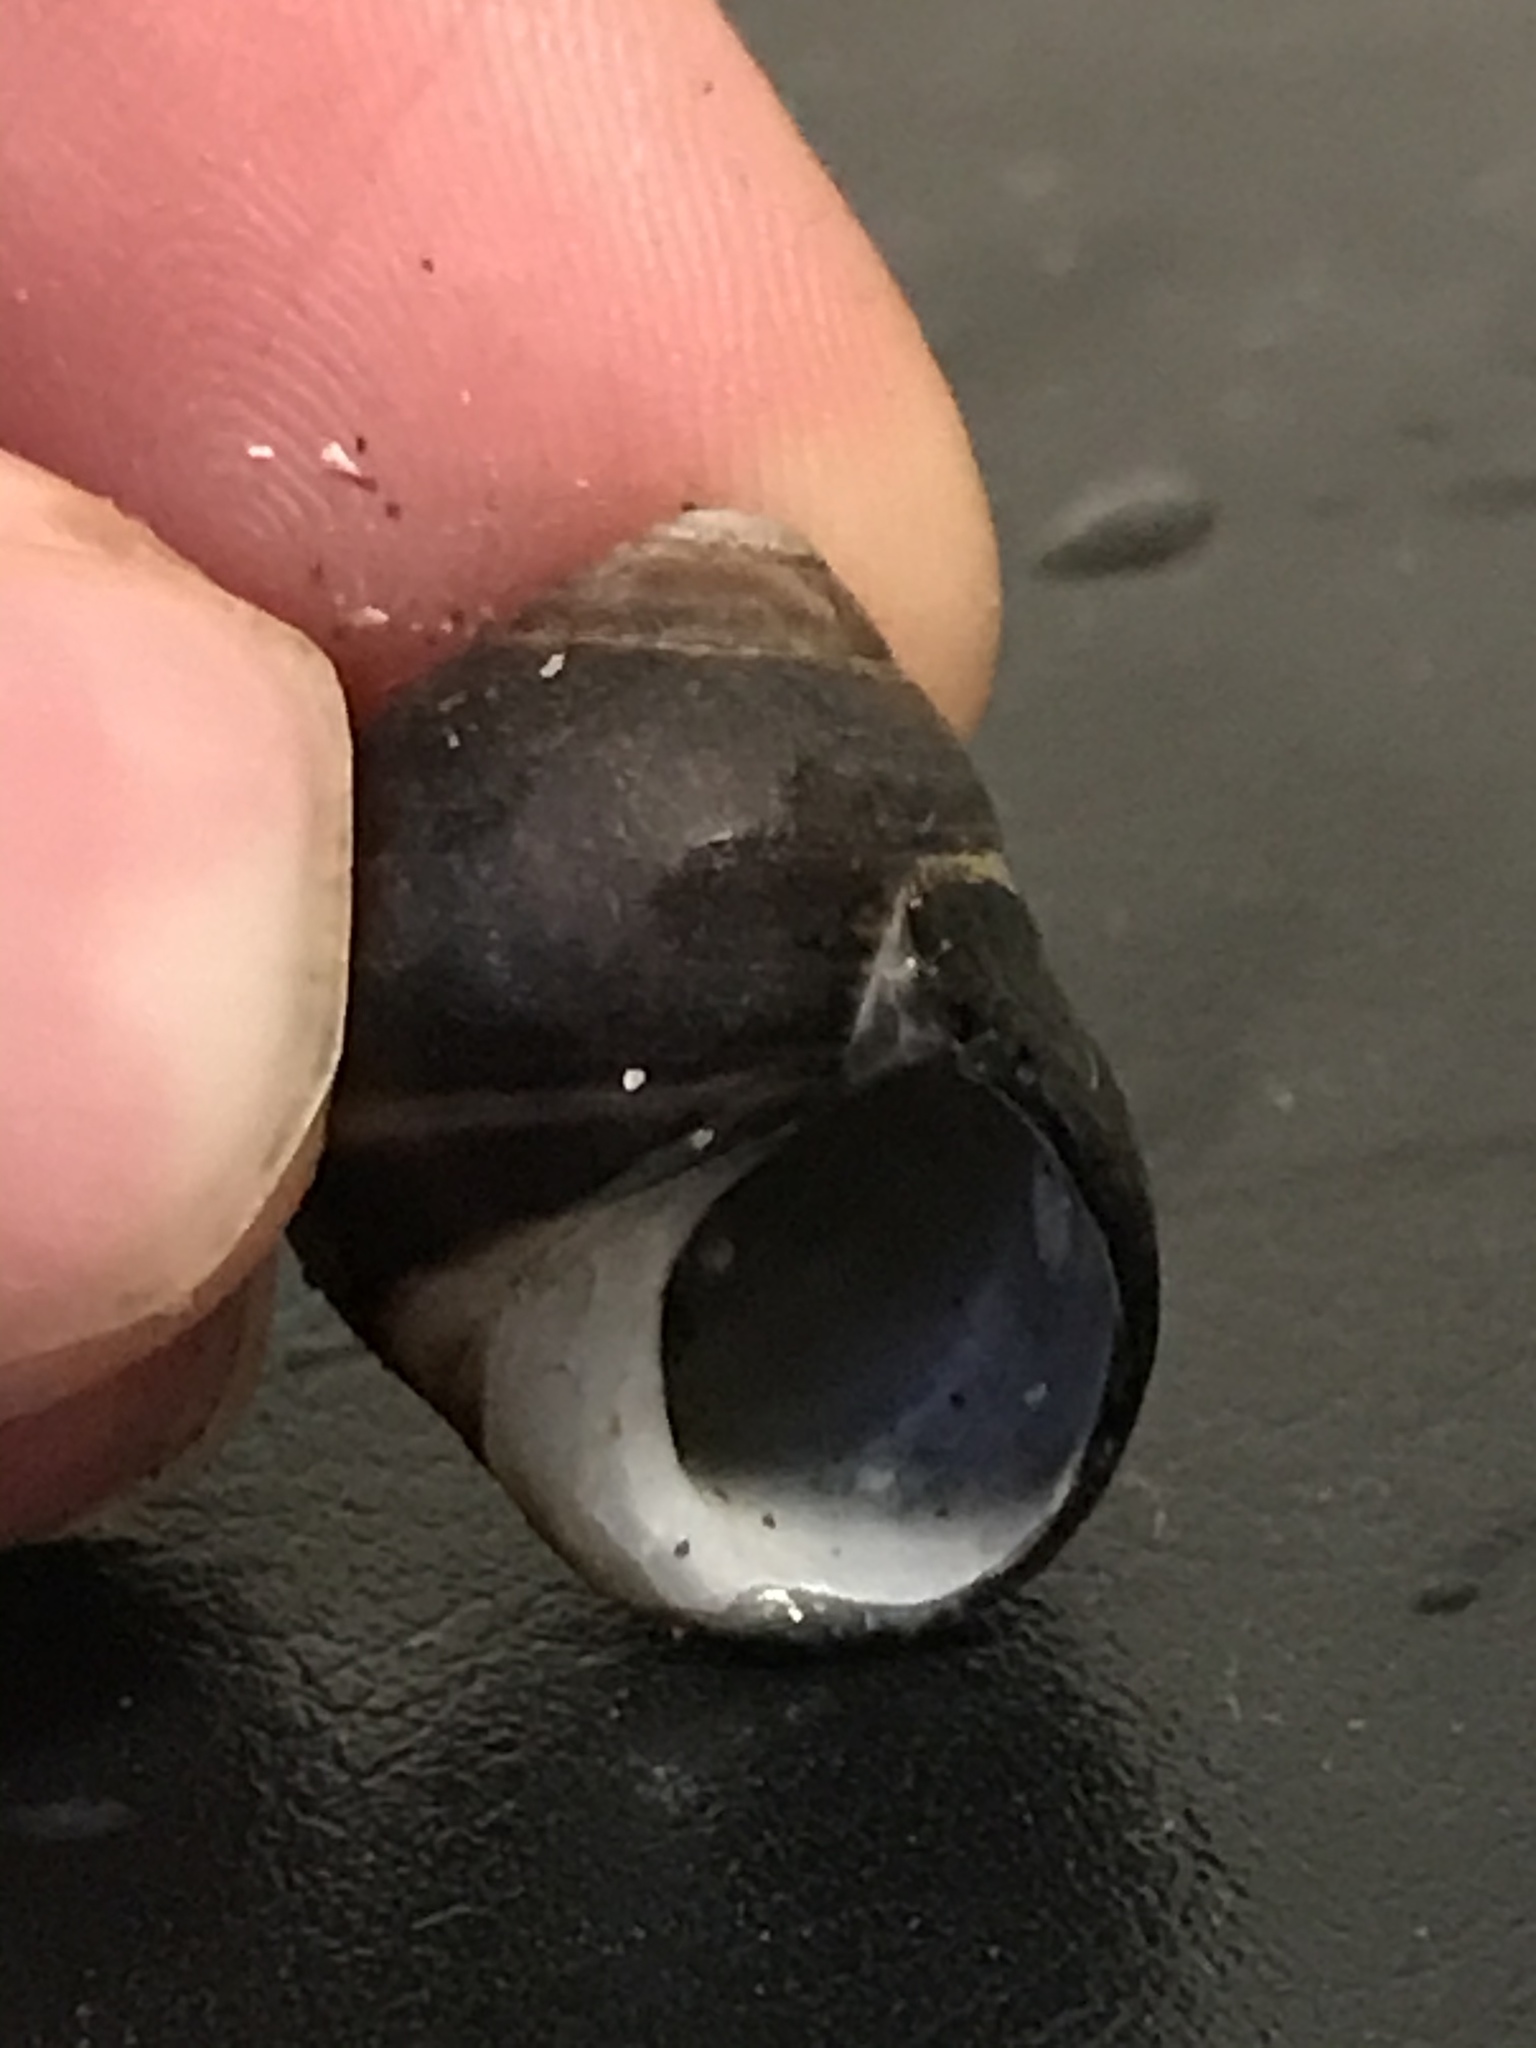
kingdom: Animalia
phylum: Mollusca
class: Gastropoda
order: Littorinimorpha
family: Littorinidae
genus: Littorina
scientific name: Littorina littorea
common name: Common periwinkle
